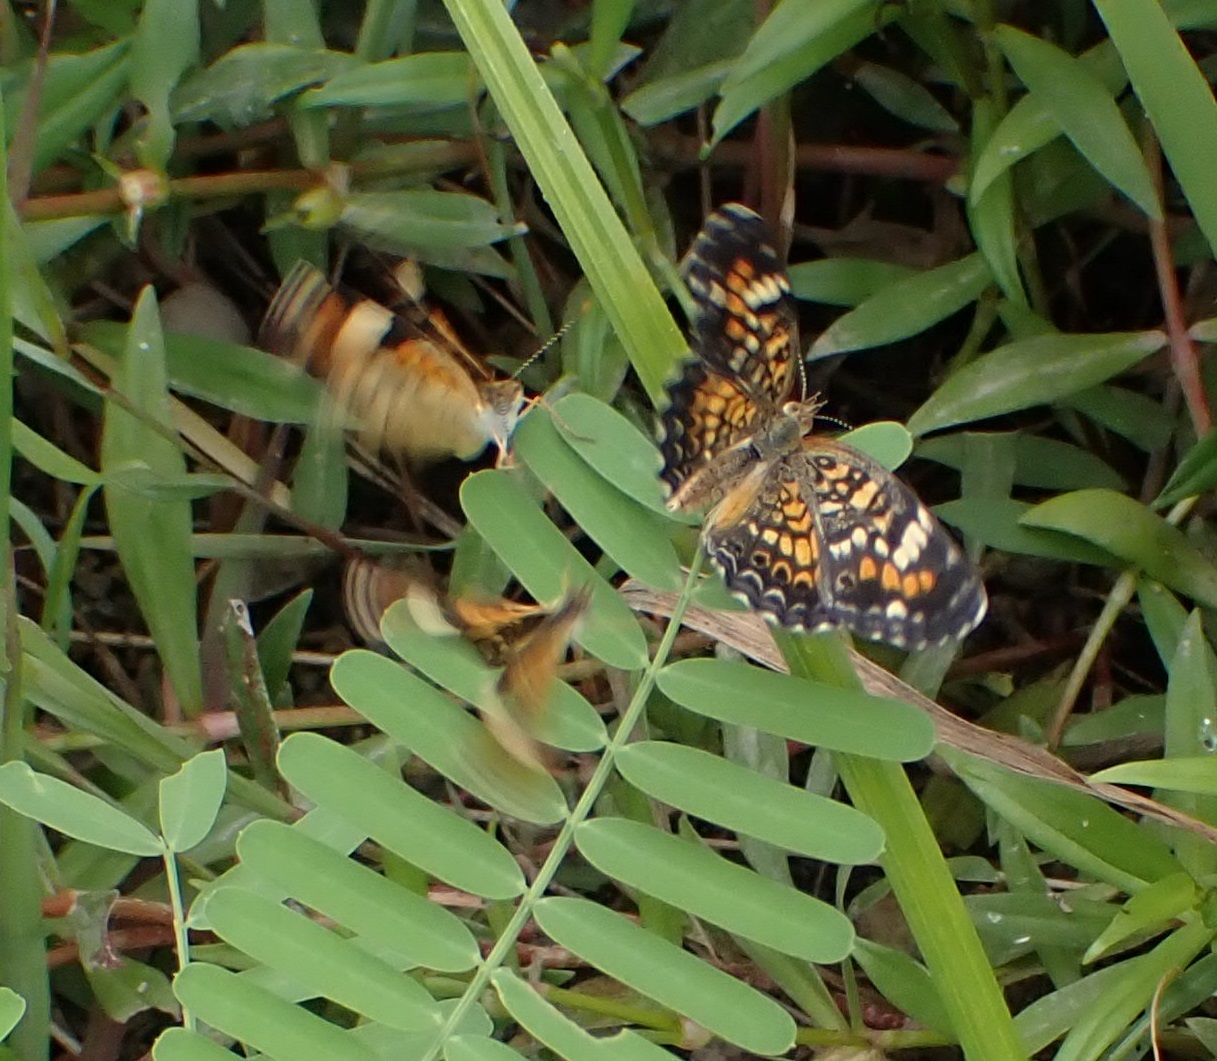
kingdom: Animalia
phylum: Arthropoda
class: Insecta
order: Lepidoptera
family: Nymphalidae
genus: Phyciodes
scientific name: Phyciodes phaon
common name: Phaon crescent
